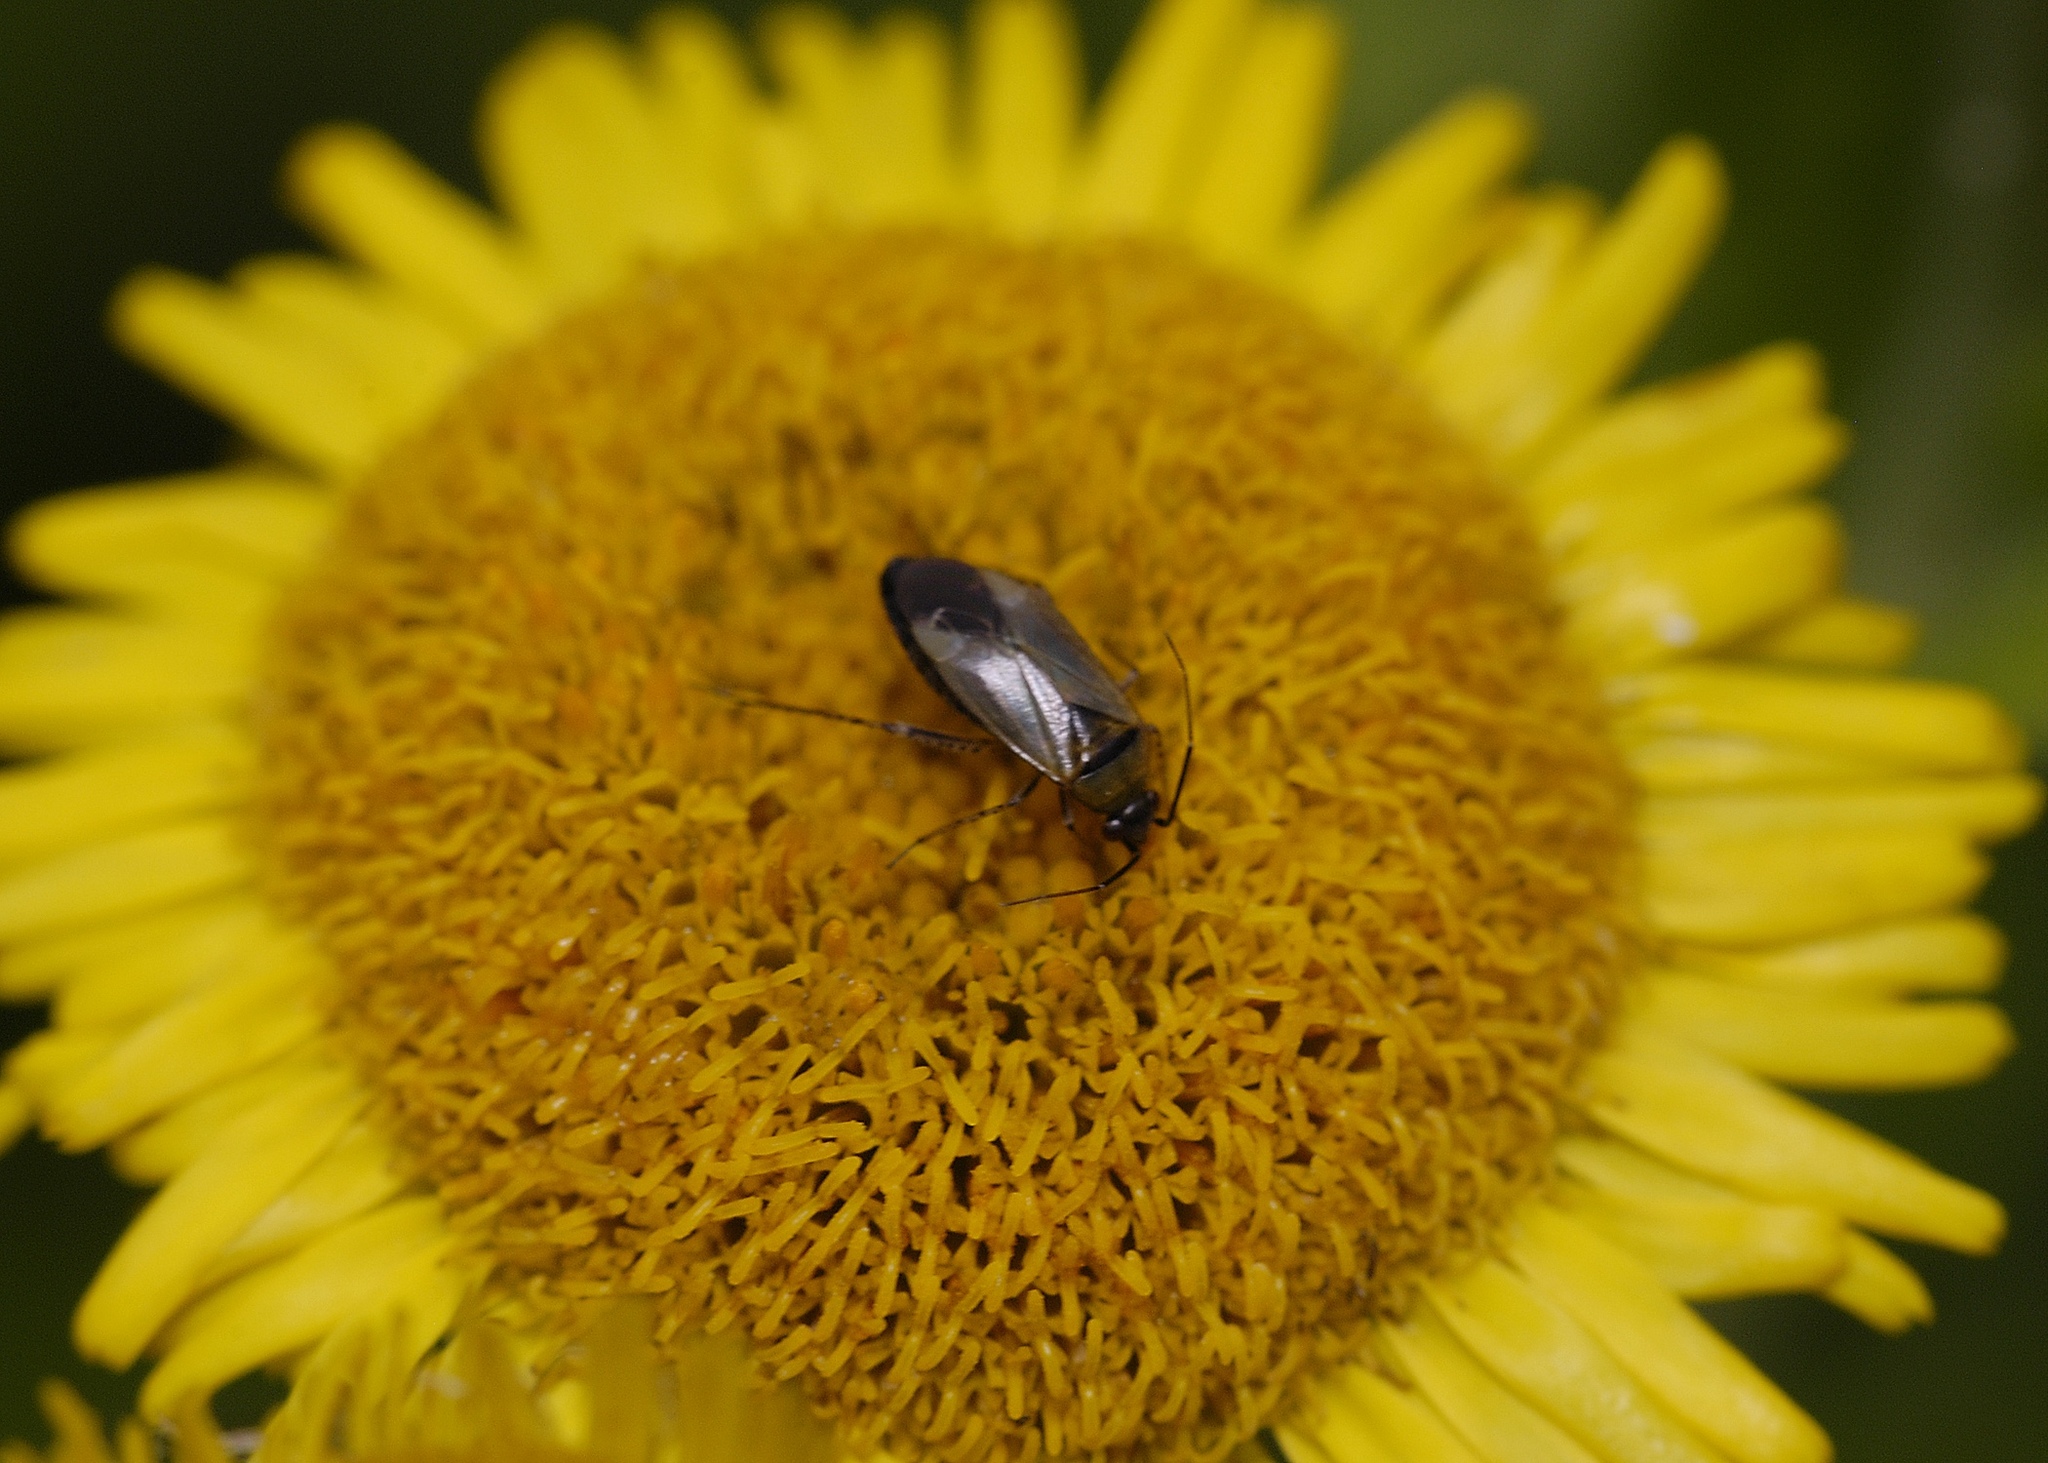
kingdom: Animalia
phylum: Arthropoda
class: Insecta
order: Hemiptera
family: Miridae
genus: Plagiognathus
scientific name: Plagiognathus arbustorum
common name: Plant bug
